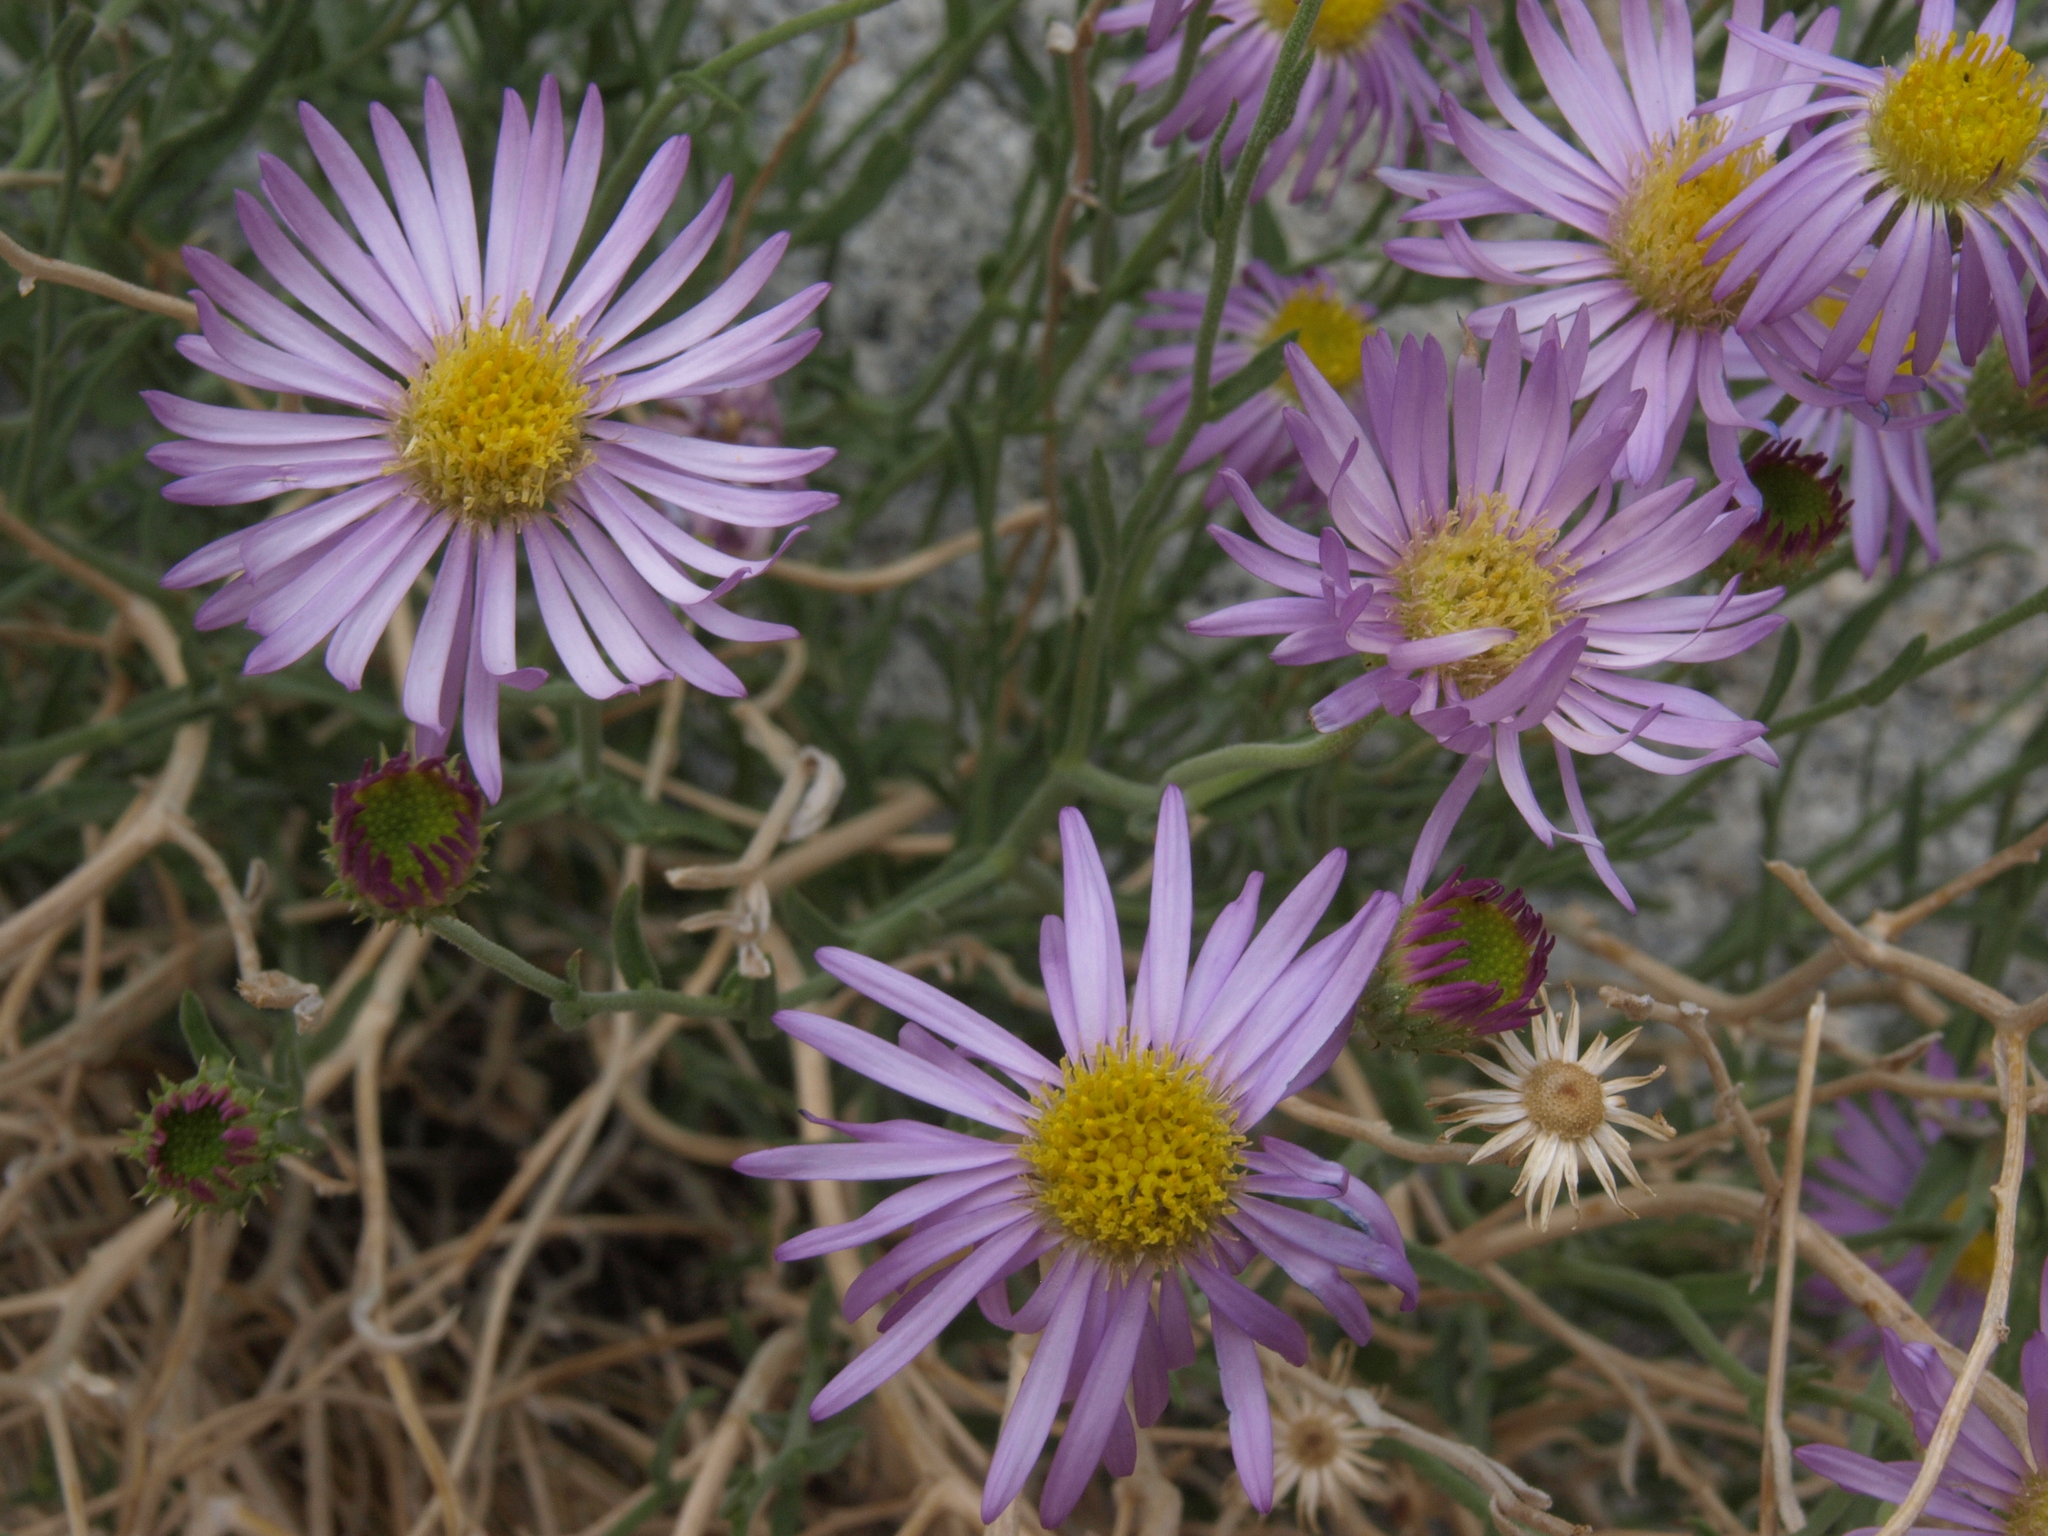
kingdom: Plantae
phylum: Tracheophyta
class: Magnoliopsida
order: Asterales
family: Asteraceae
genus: Erigeron
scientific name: Erigeron breweri
